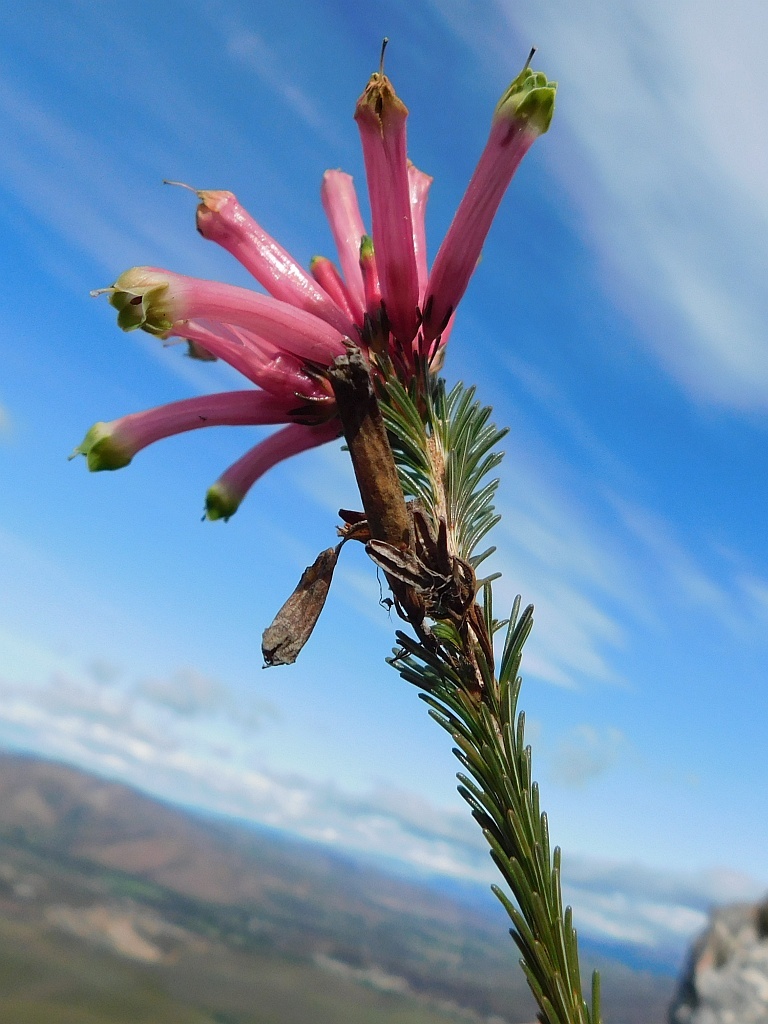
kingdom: Plantae
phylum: Tracheophyta
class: Magnoliopsida
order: Ericales
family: Ericaceae
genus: Erica
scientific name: Erica fascicularis
